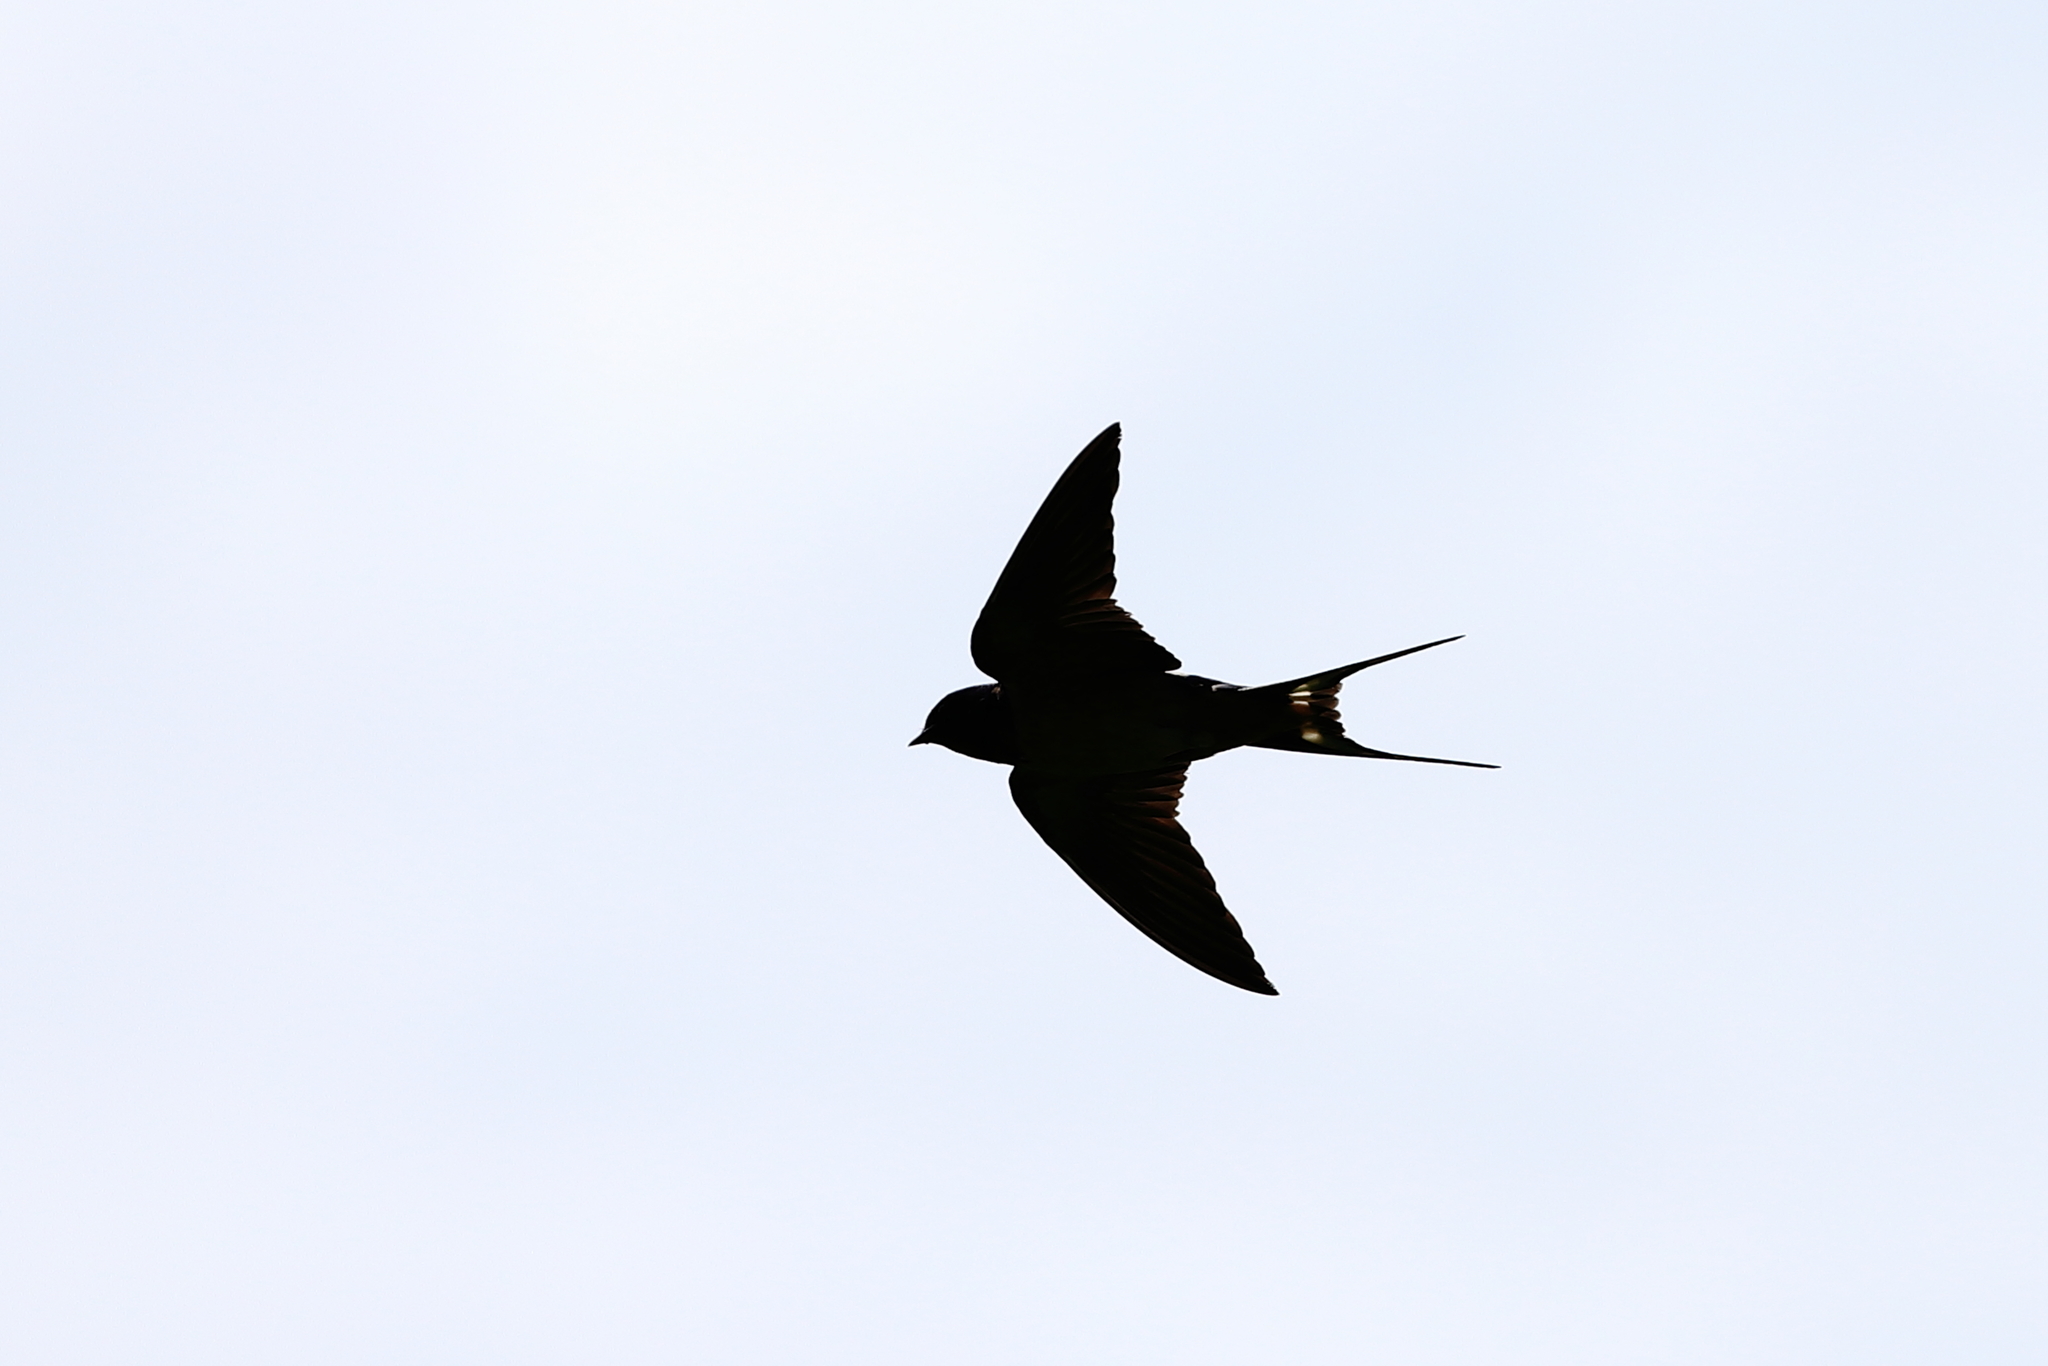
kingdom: Animalia
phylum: Chordata
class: Aves
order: Passeriformes
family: Hirundinidae
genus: Hirundo
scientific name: Hirundo rustica
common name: Barn swallow
